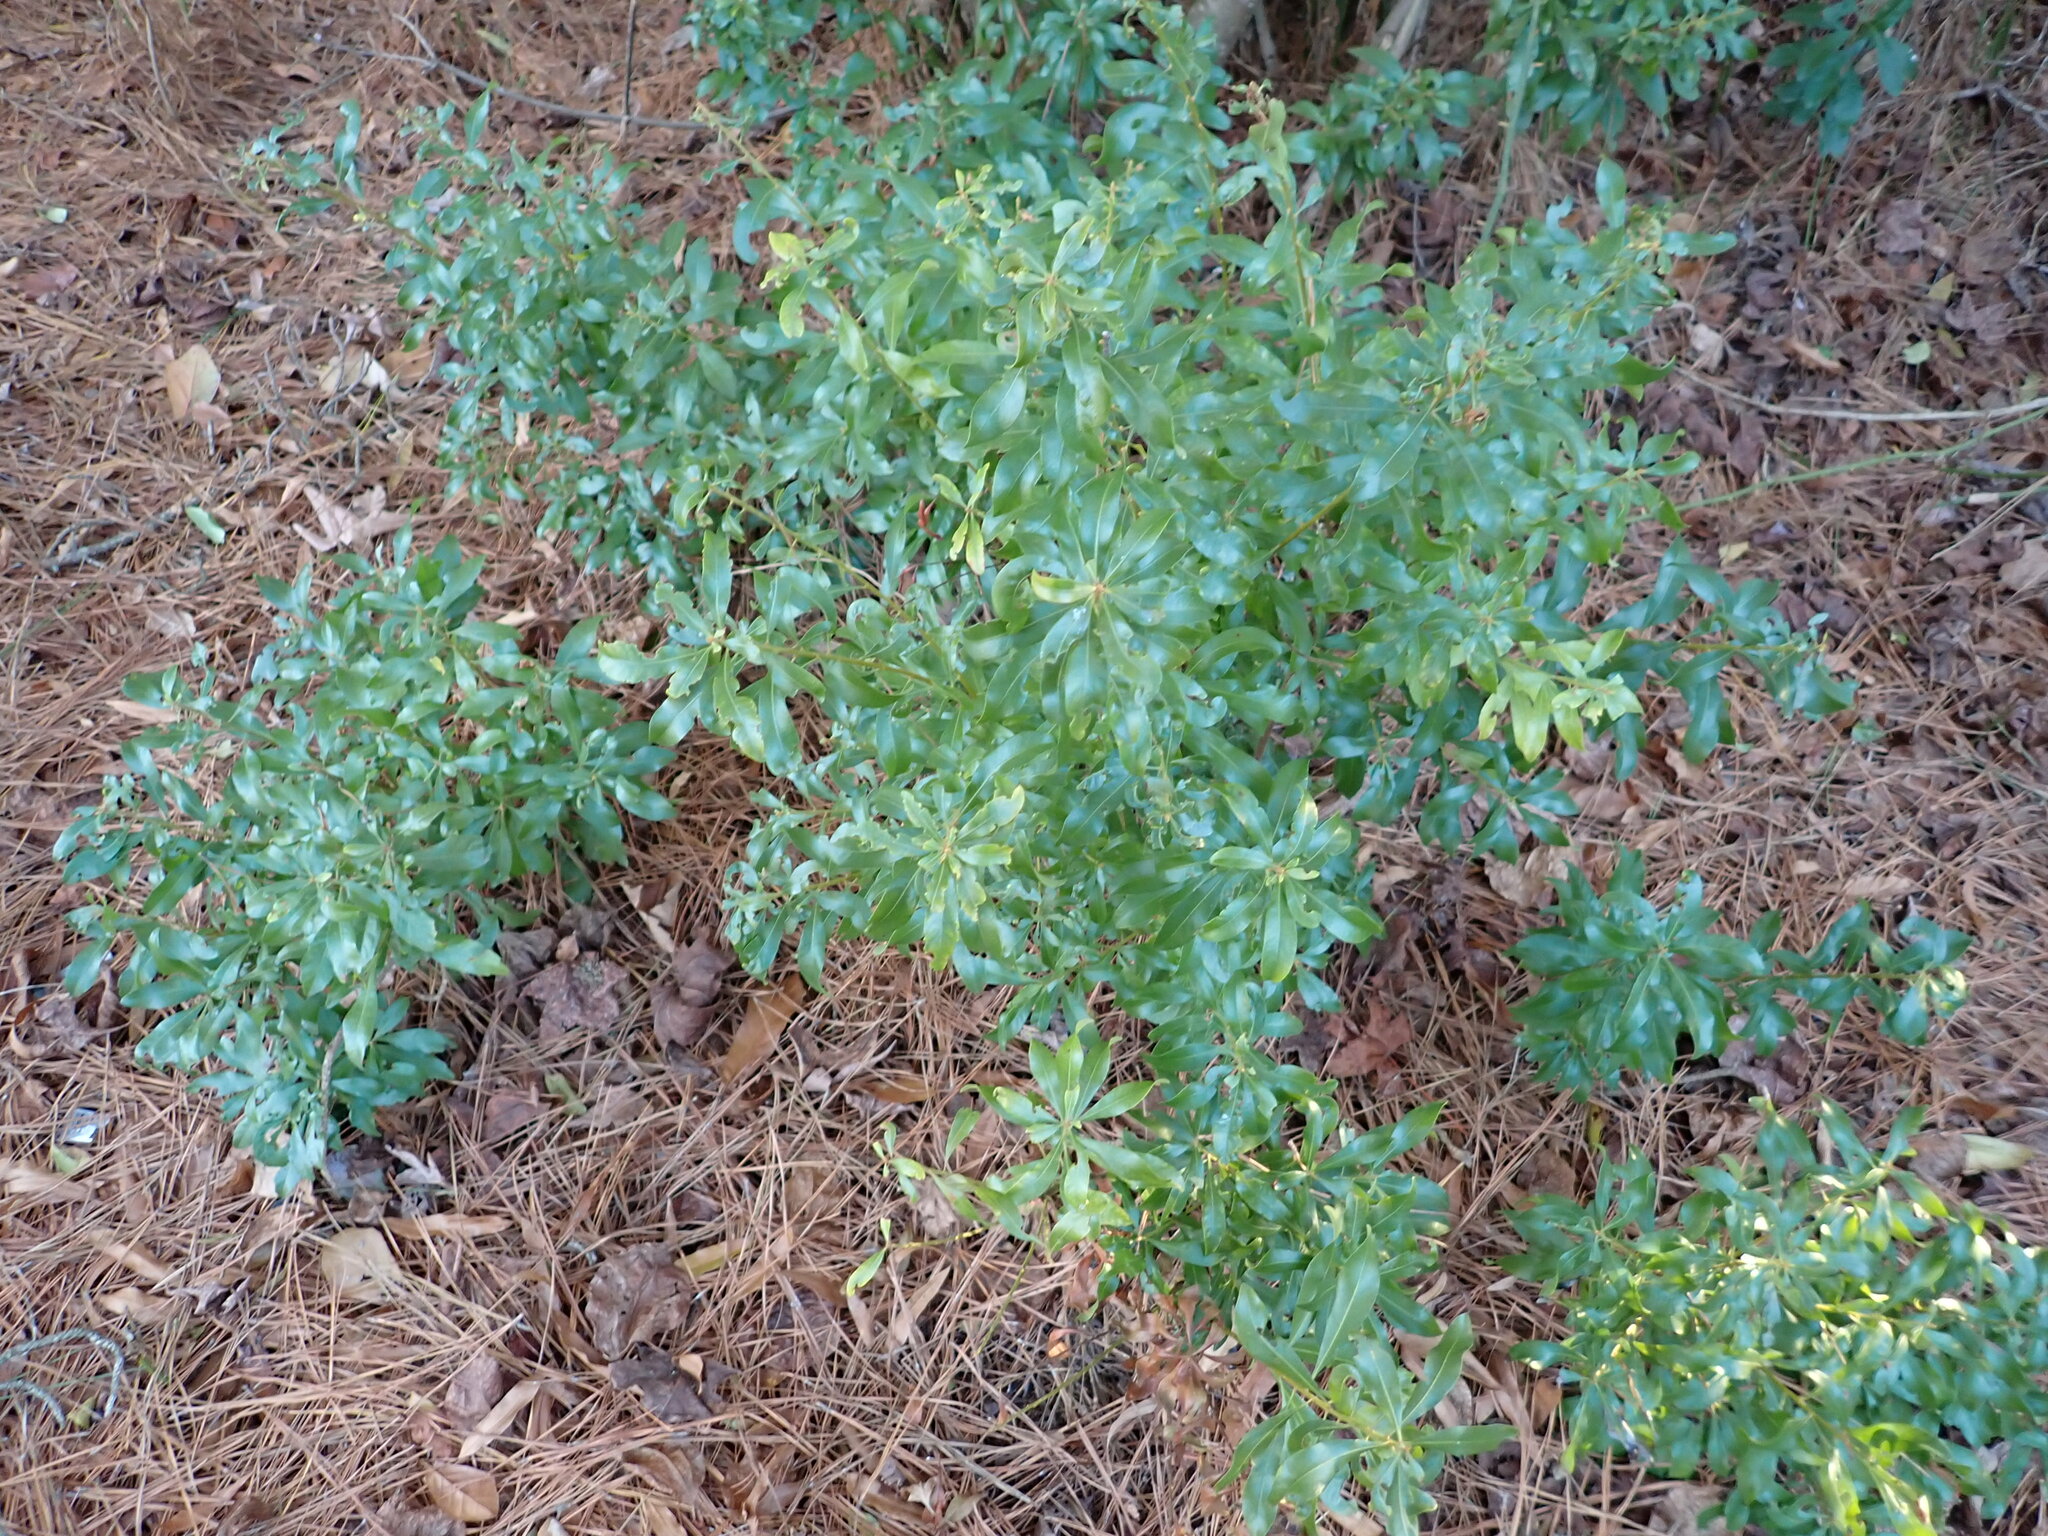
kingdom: Plantae
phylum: Tracheophyta
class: Magnoliopsida
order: Fagales
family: Myricaceae
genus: Morella
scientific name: Morella cerifera
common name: Wax myrtle
